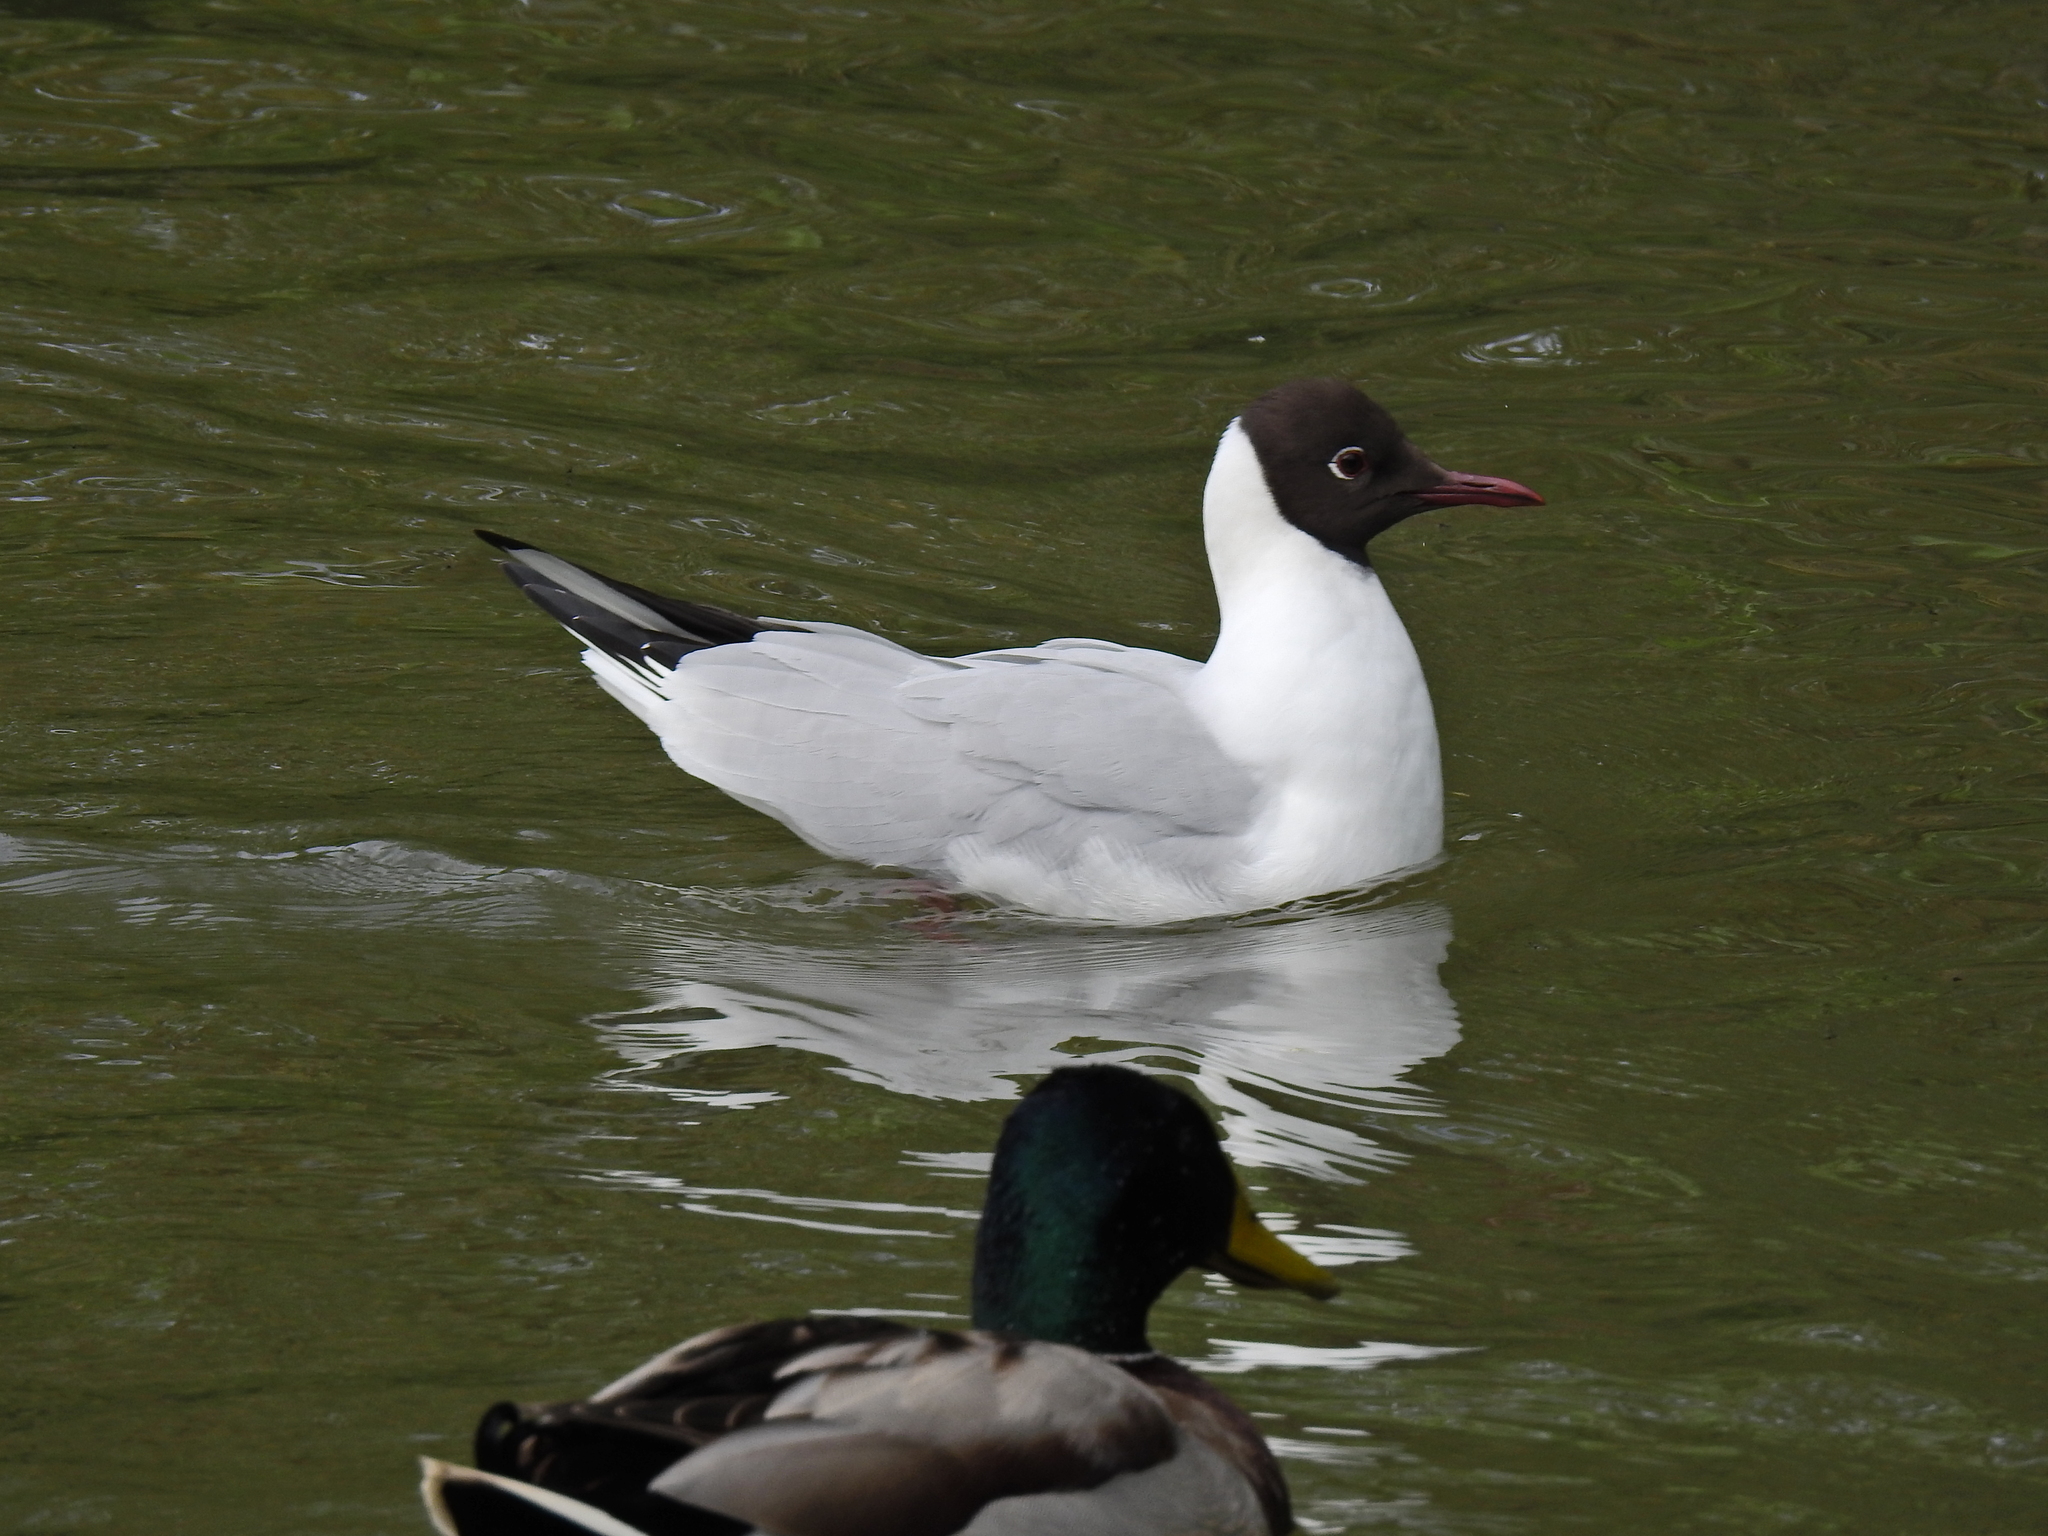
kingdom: Animalia
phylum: Chordata
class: Aves
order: Charadriiformes
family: Laridae
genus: Chroicocephalus
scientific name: Chroicocephalus ridibundus
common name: Black-headed gull
